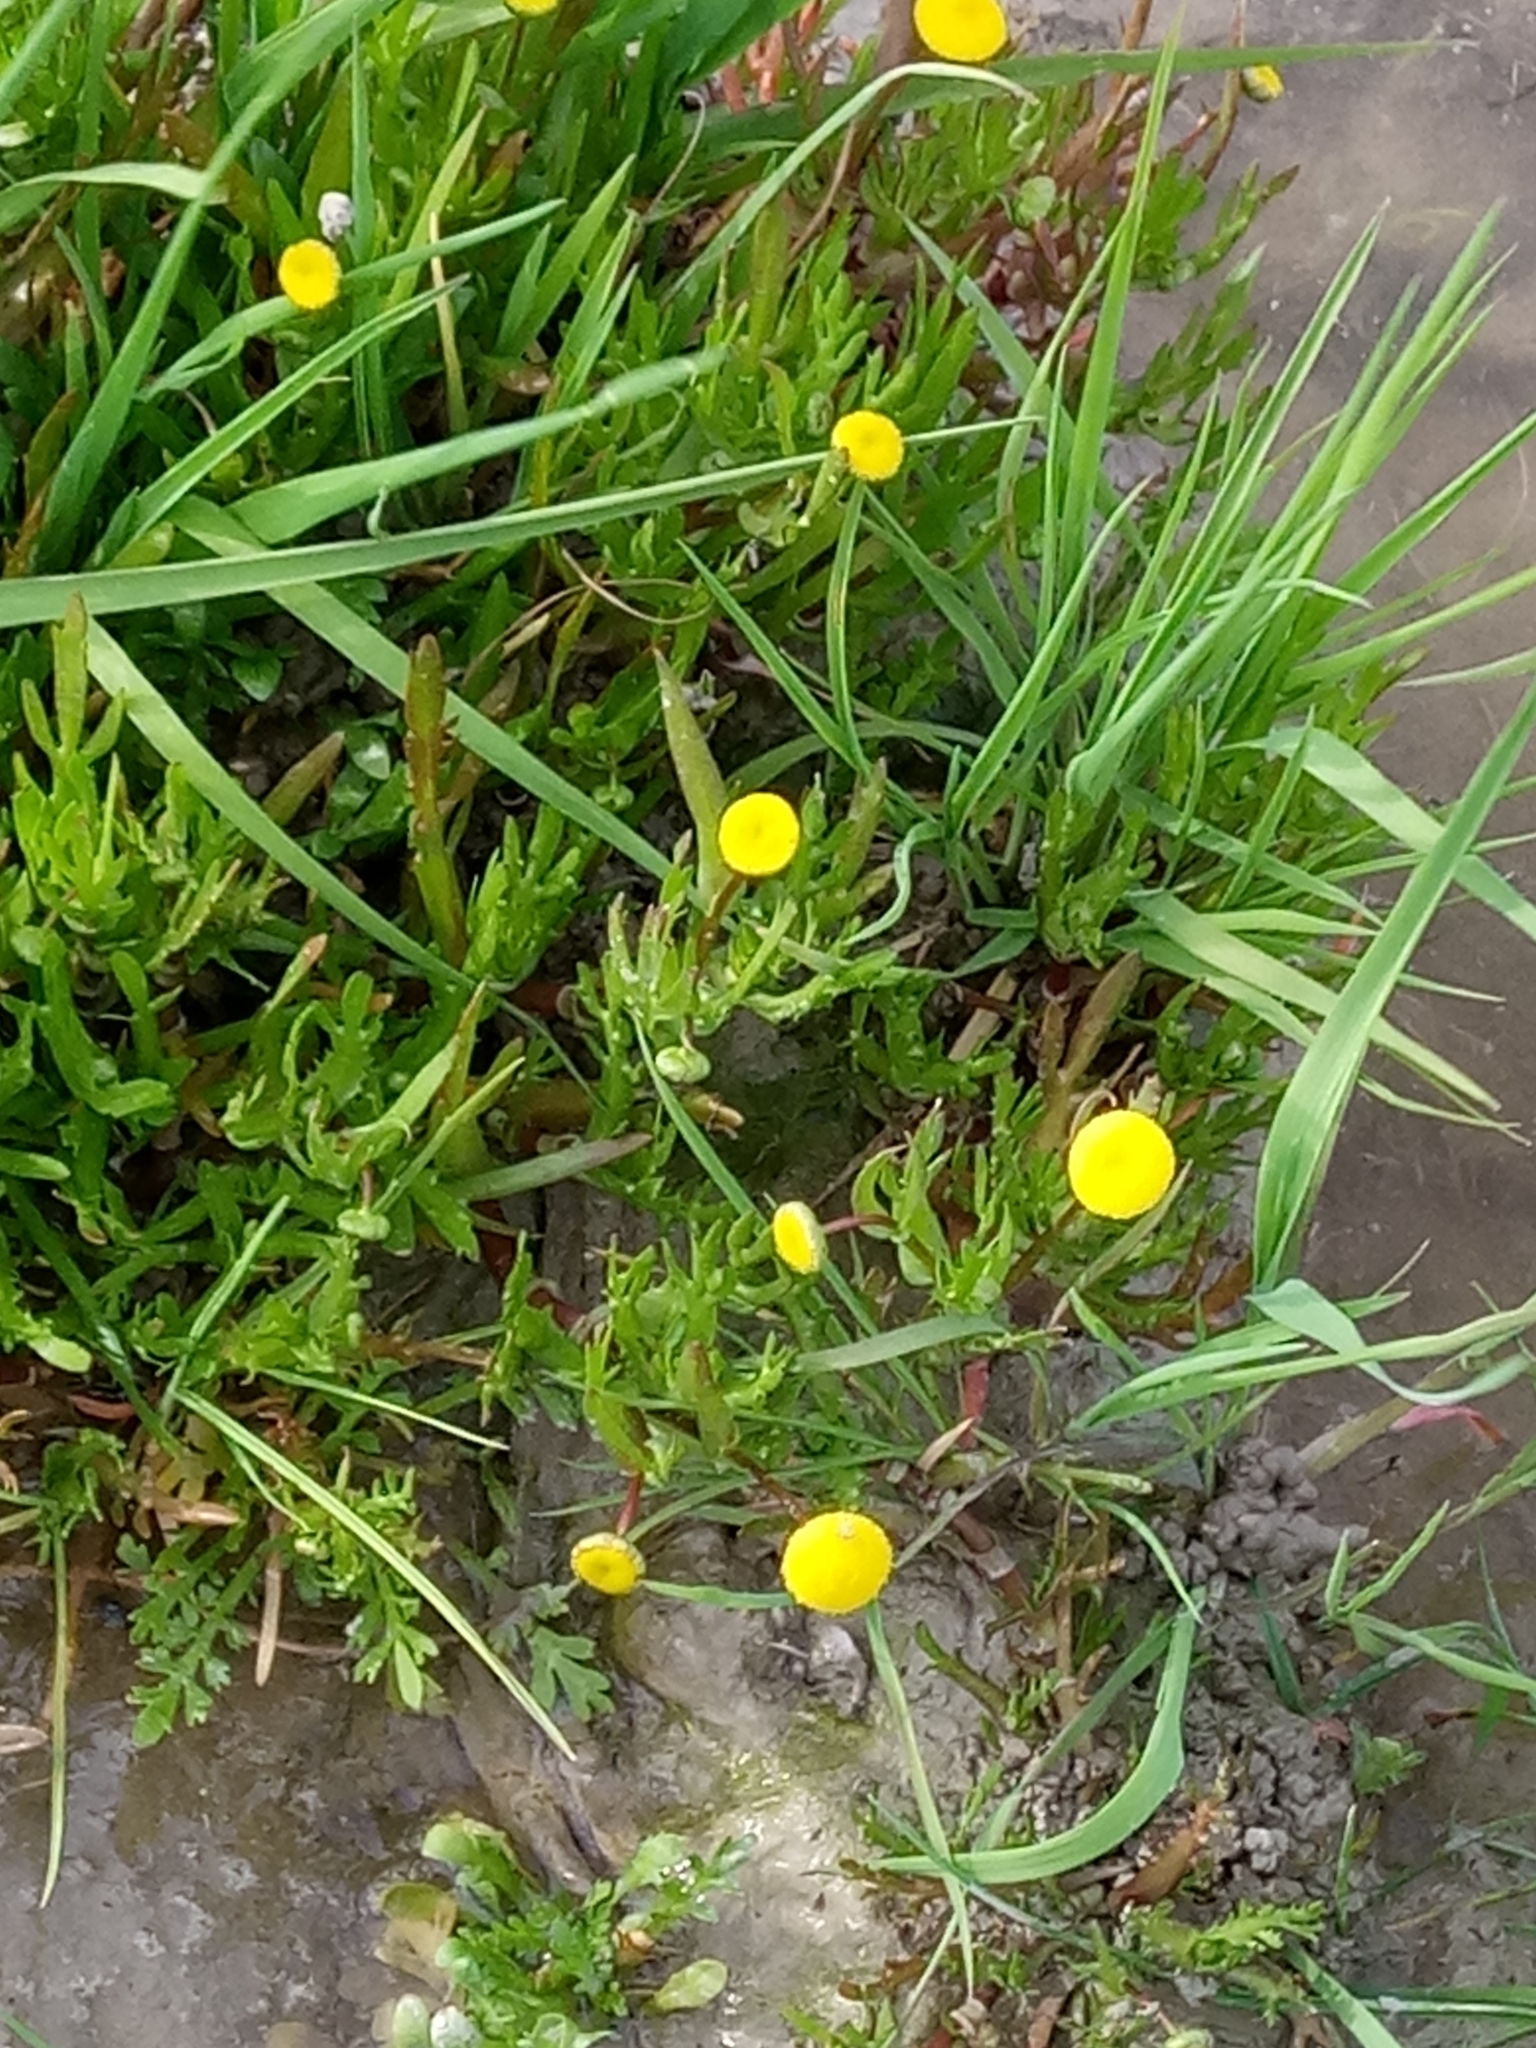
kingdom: Plantae
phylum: Tracheophyta
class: Magnoliopsida
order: Asterales
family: Asteraceae
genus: Cotula
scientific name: Cotula coronopifolia
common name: Buttonweed
